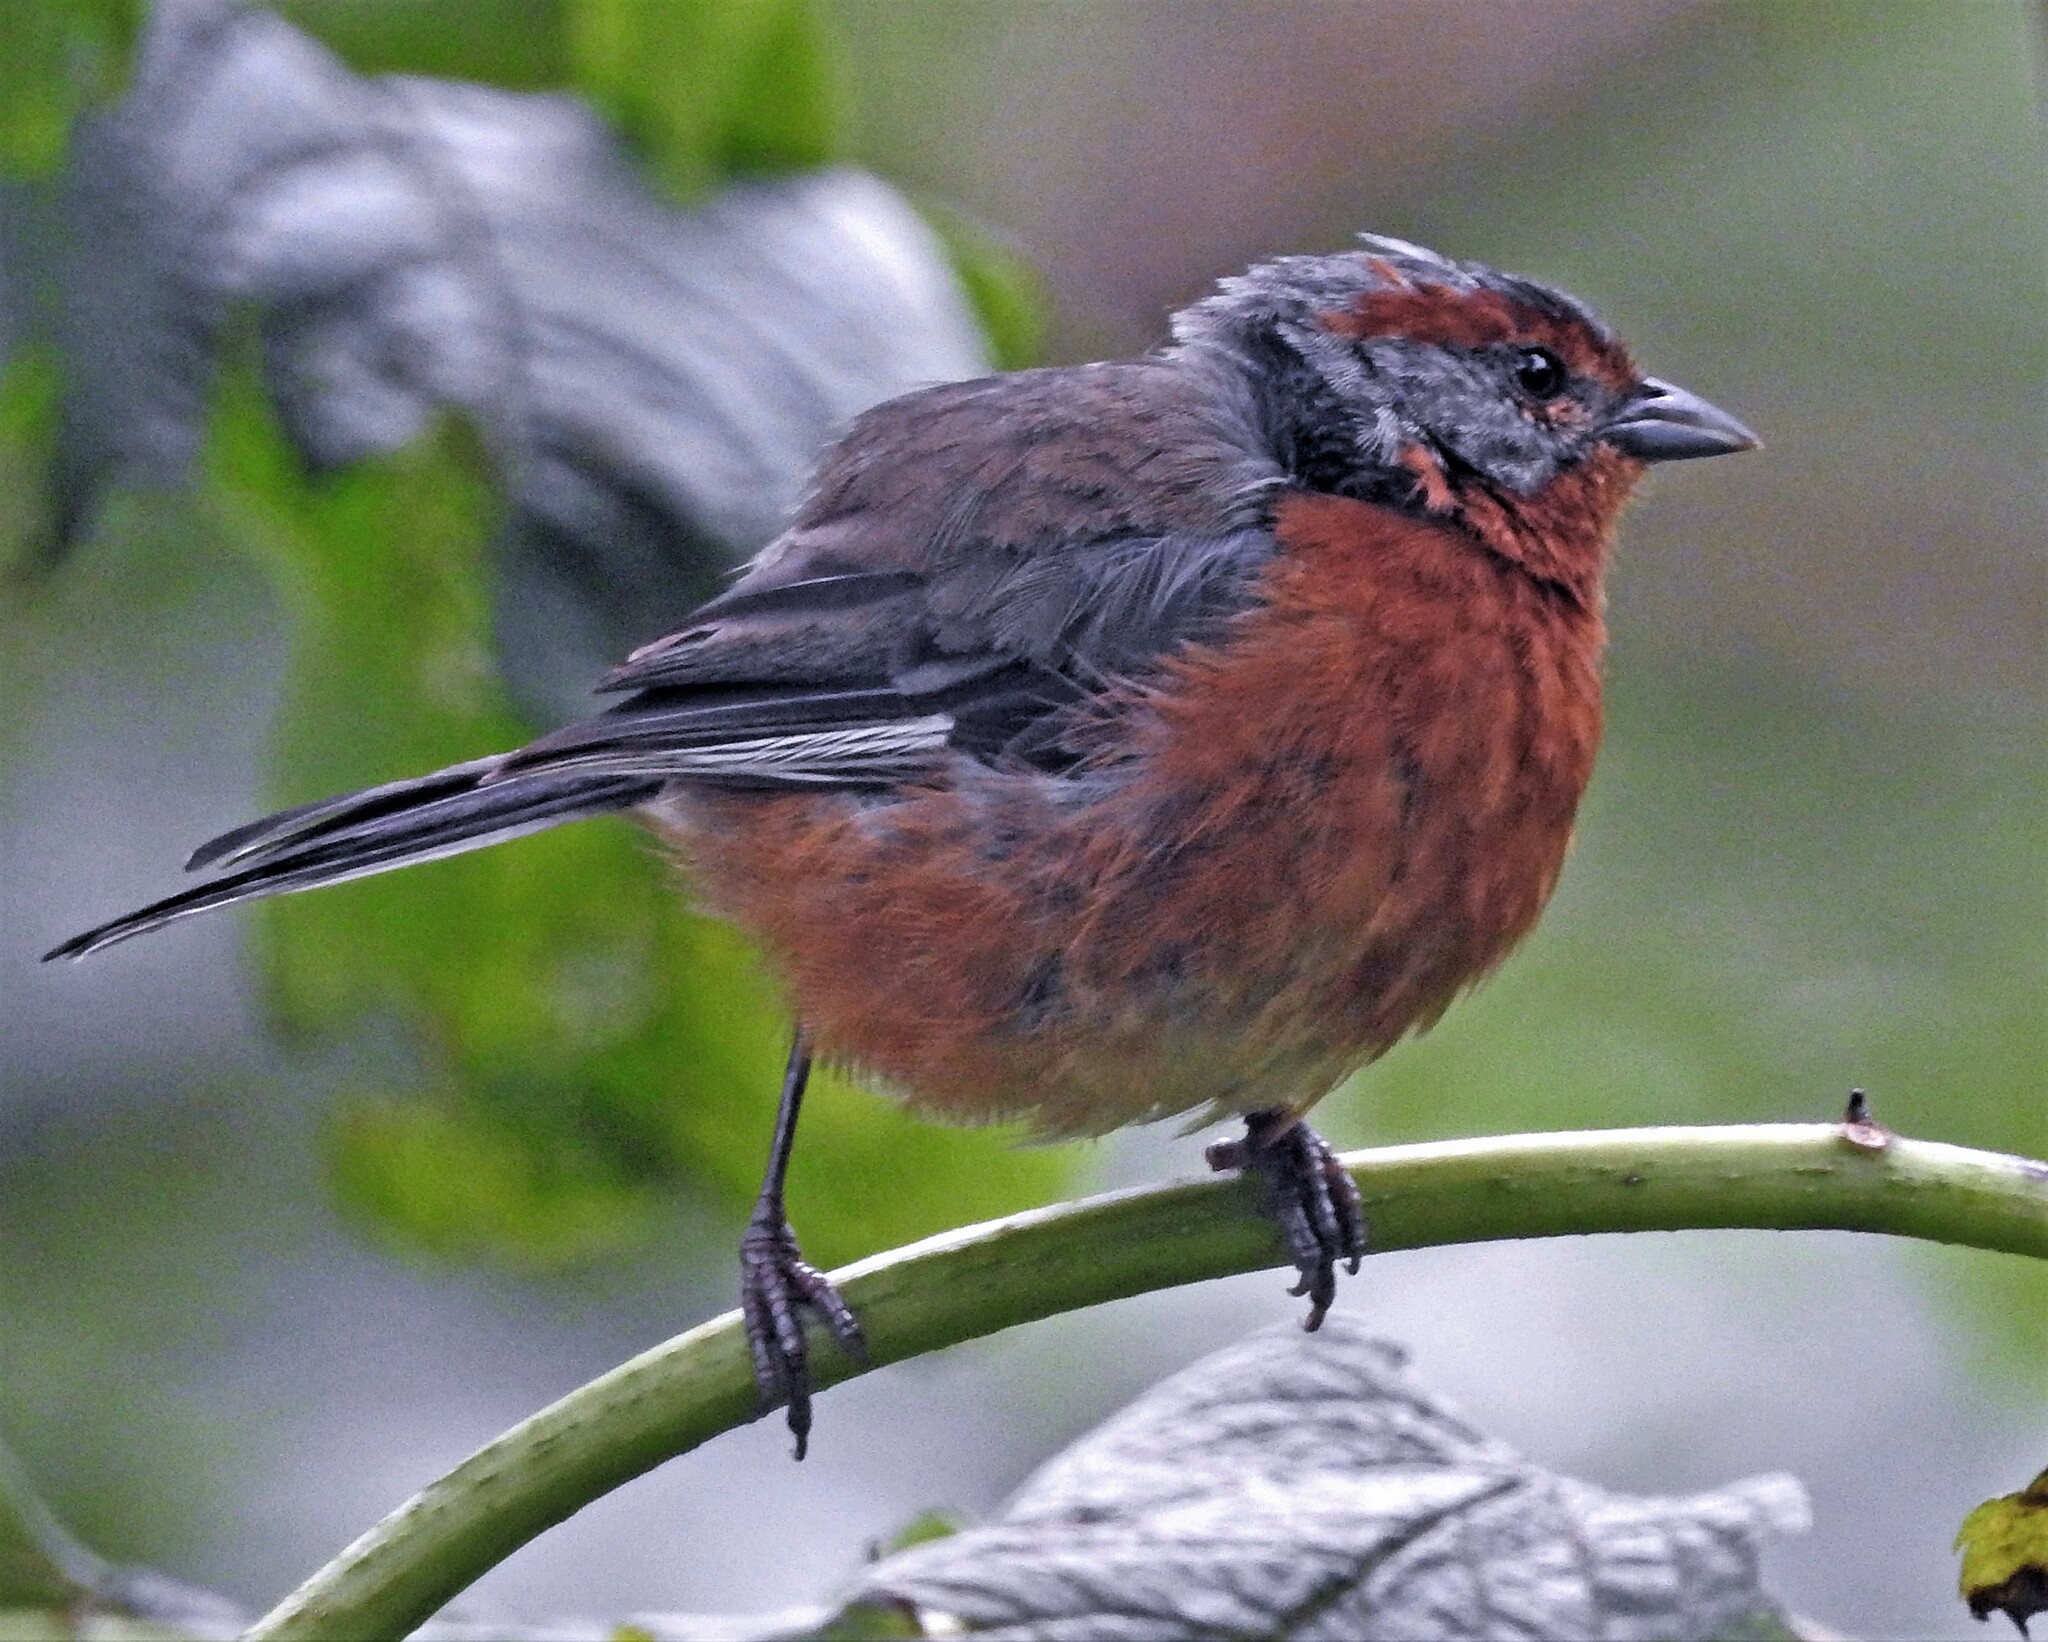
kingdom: Animalia
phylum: Chordata
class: Aves
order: Passeriformes
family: Thraupidae
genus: Microspingus
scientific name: Microspingus erythrophrys
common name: Rusty-browed warbling-finch
